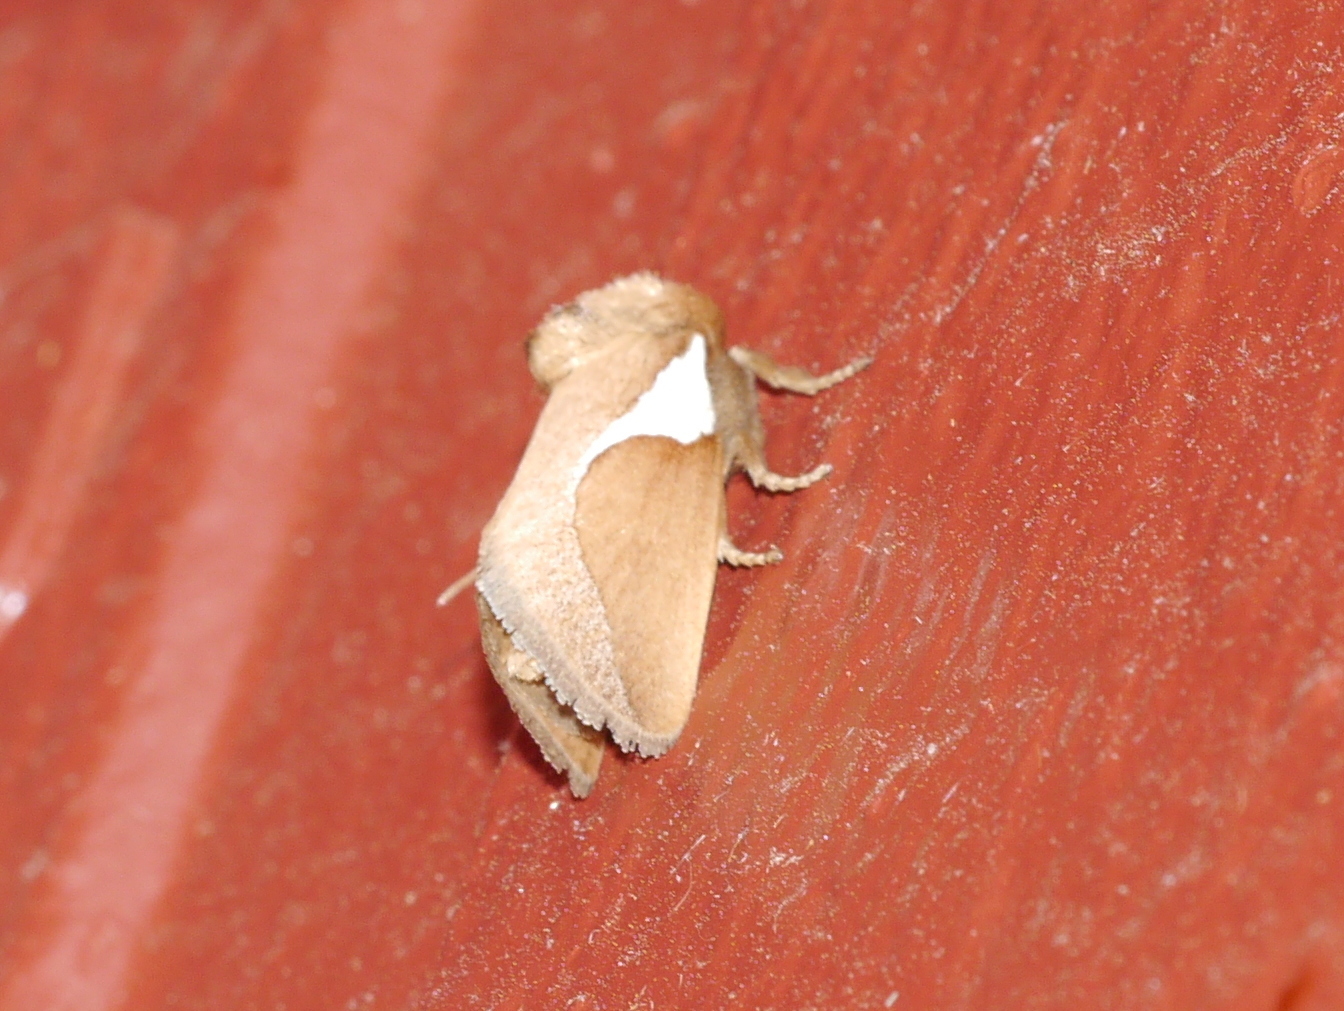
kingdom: Animalia
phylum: Arthropoda
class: Insecta
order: Lepidoptera
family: Limacodidae
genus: Prolimacodes
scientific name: Prolimacodes trigona
